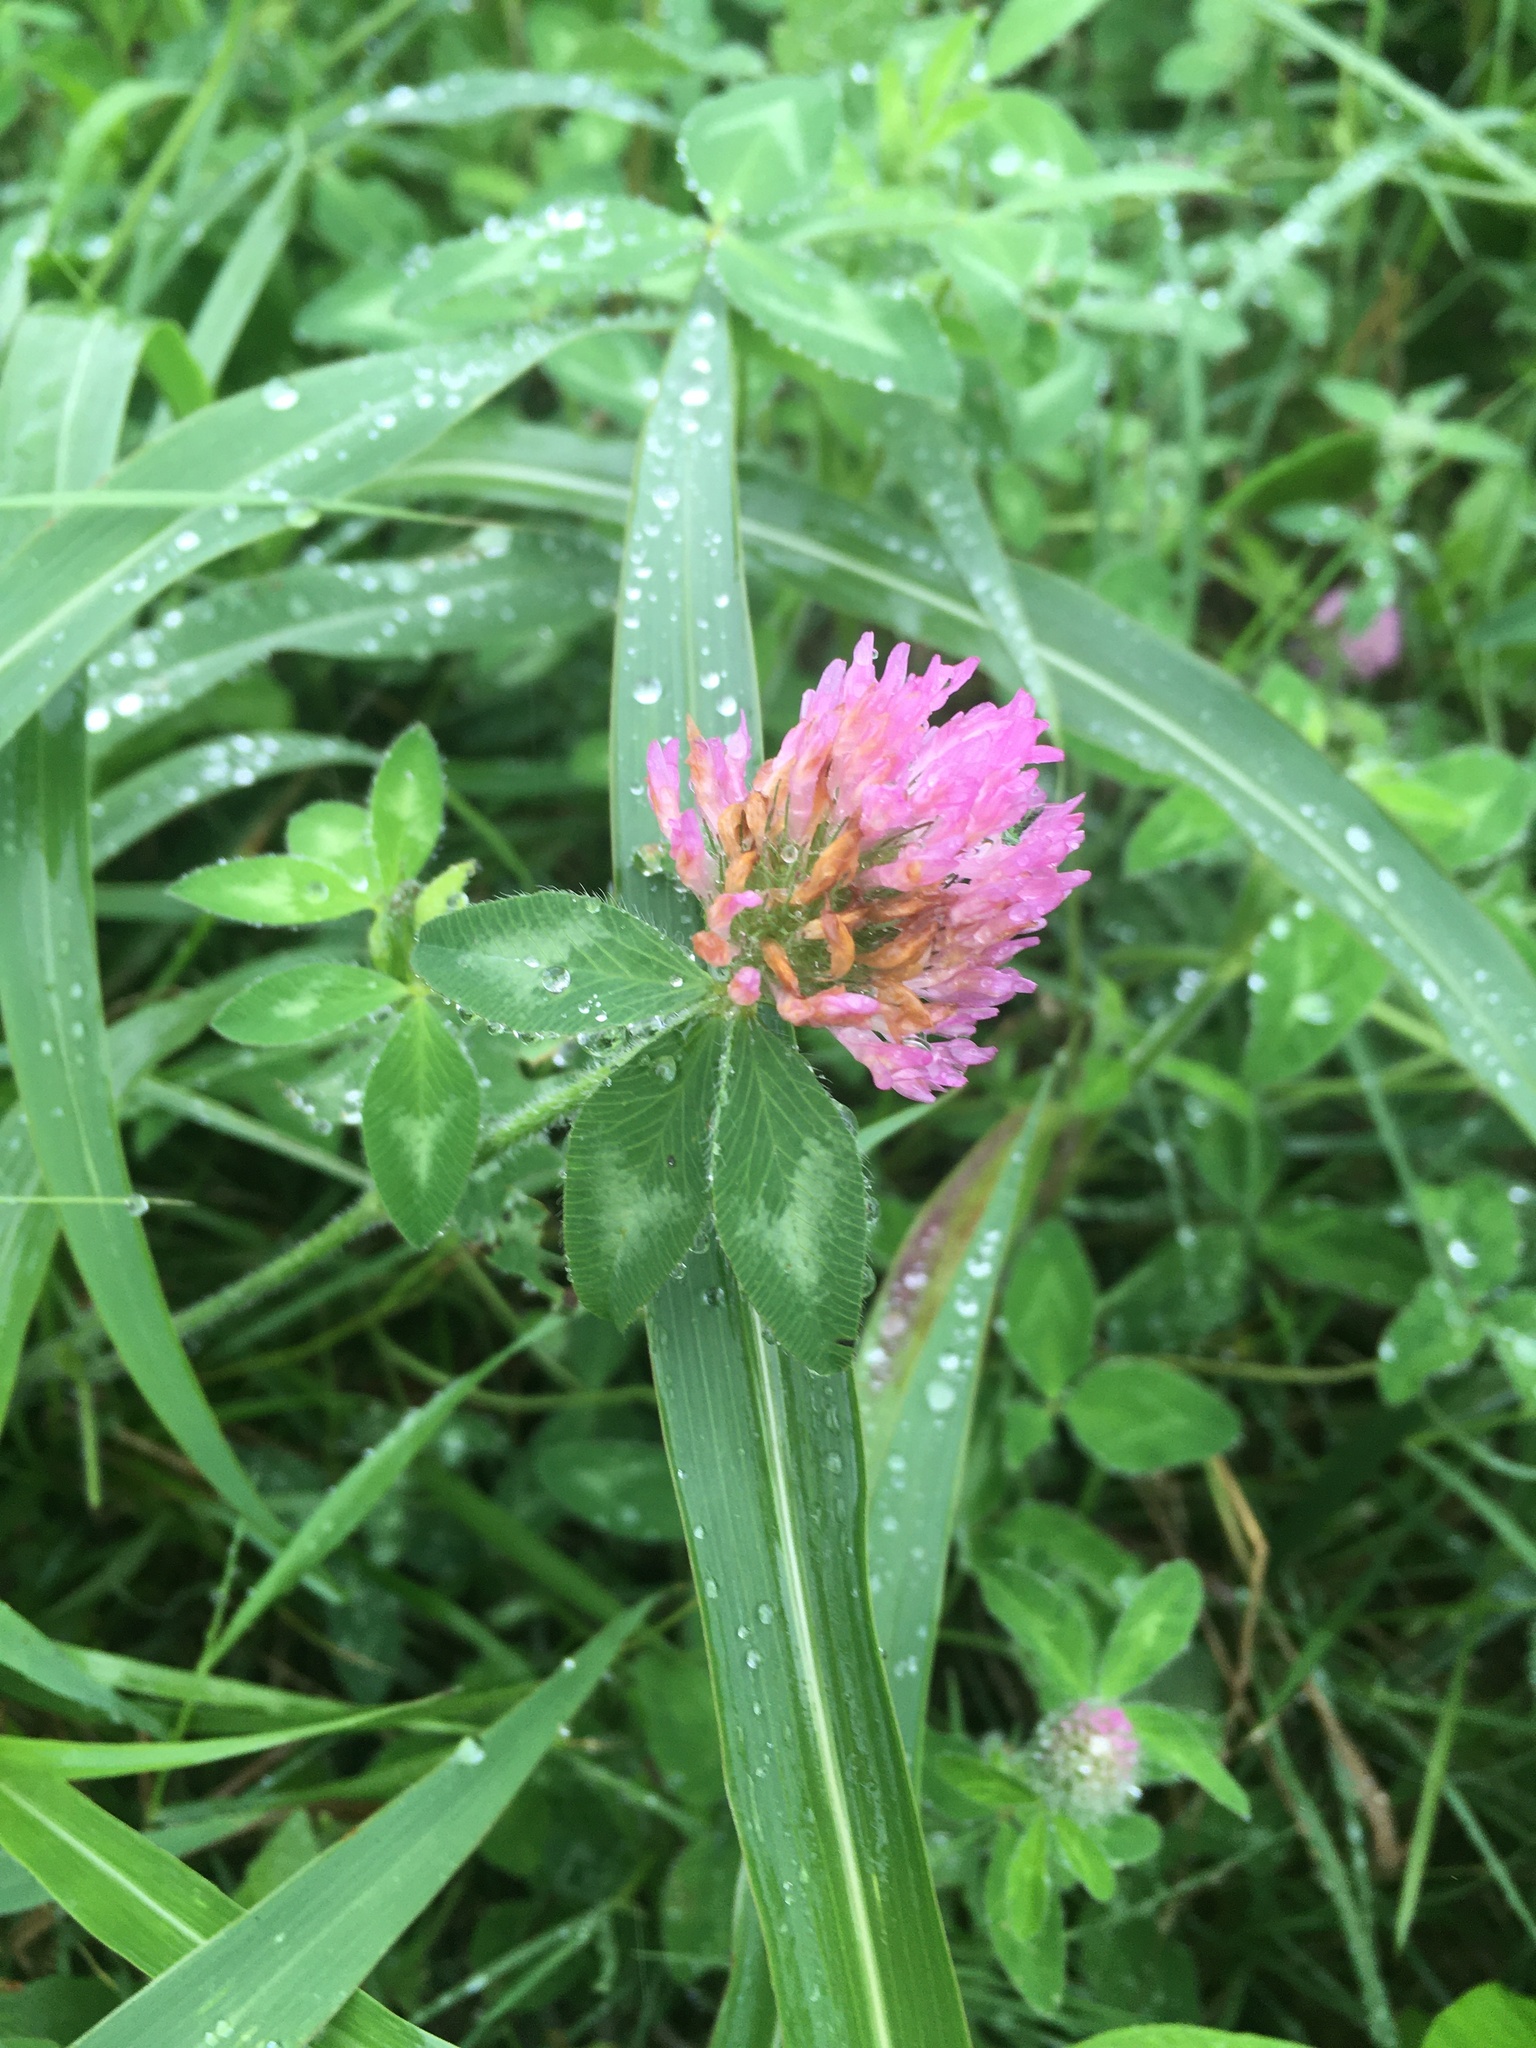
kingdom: Plantae
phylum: Tracheophyta
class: Magnoliopsida
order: Fabales
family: Fabaceae
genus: Trifolium
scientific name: Trifolium pratense
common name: Red clover
